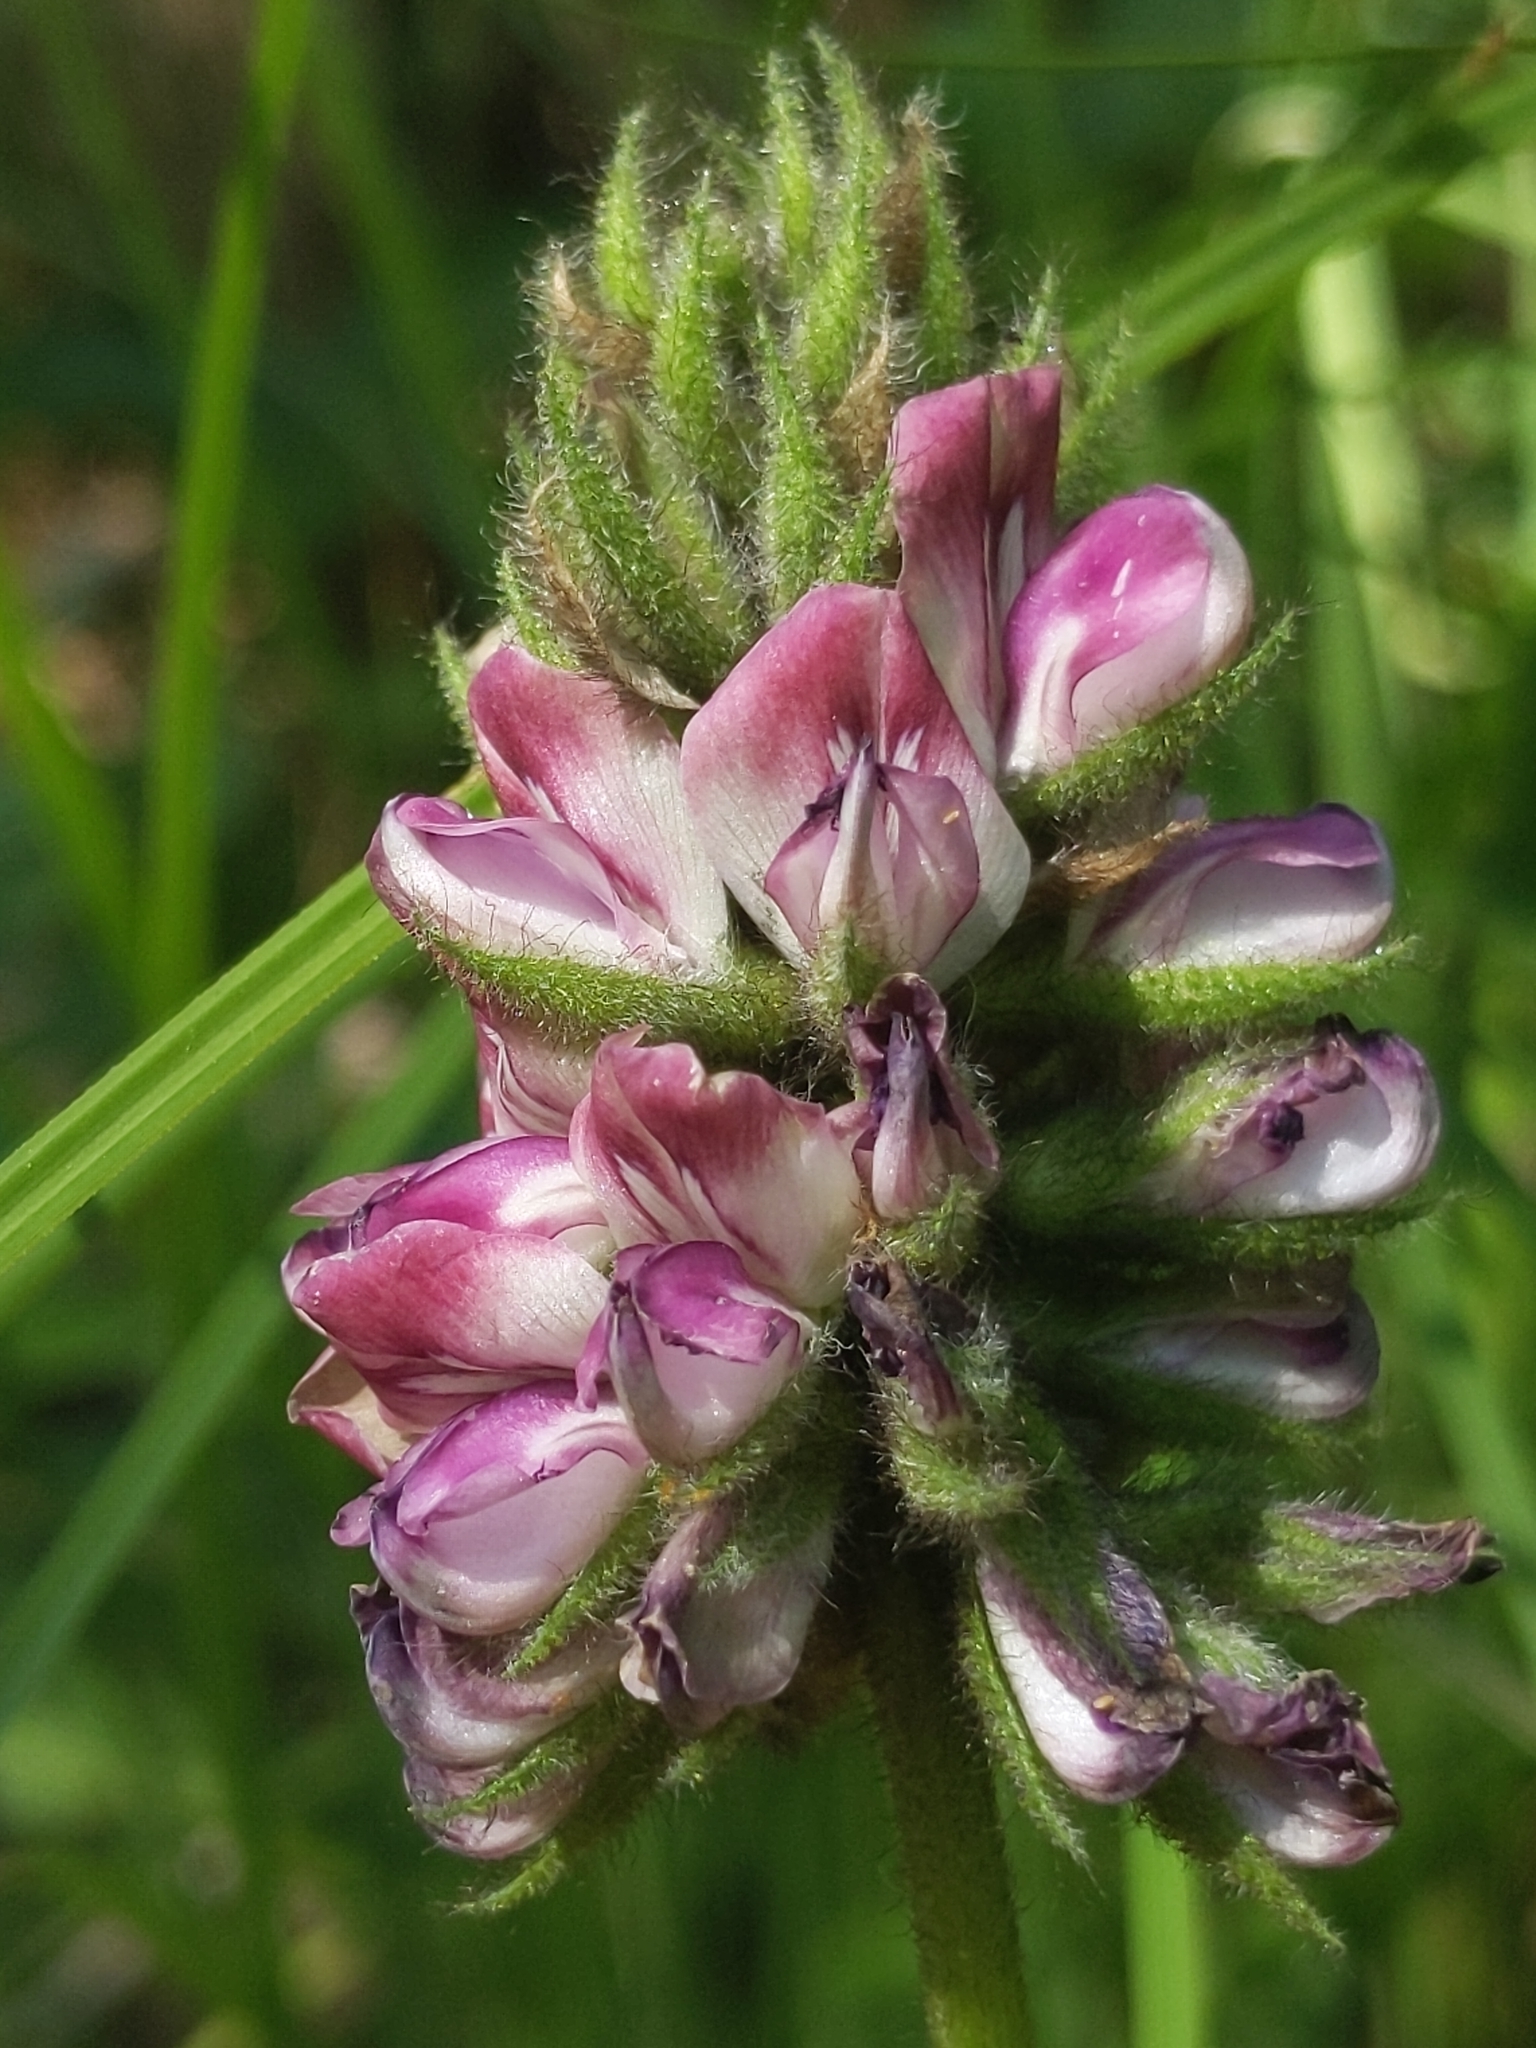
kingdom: Plantae
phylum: Tracheophyta
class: Magnoliopsida
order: Fabales
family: Fabaceae
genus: Hoita
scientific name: Hoita orbicularis
